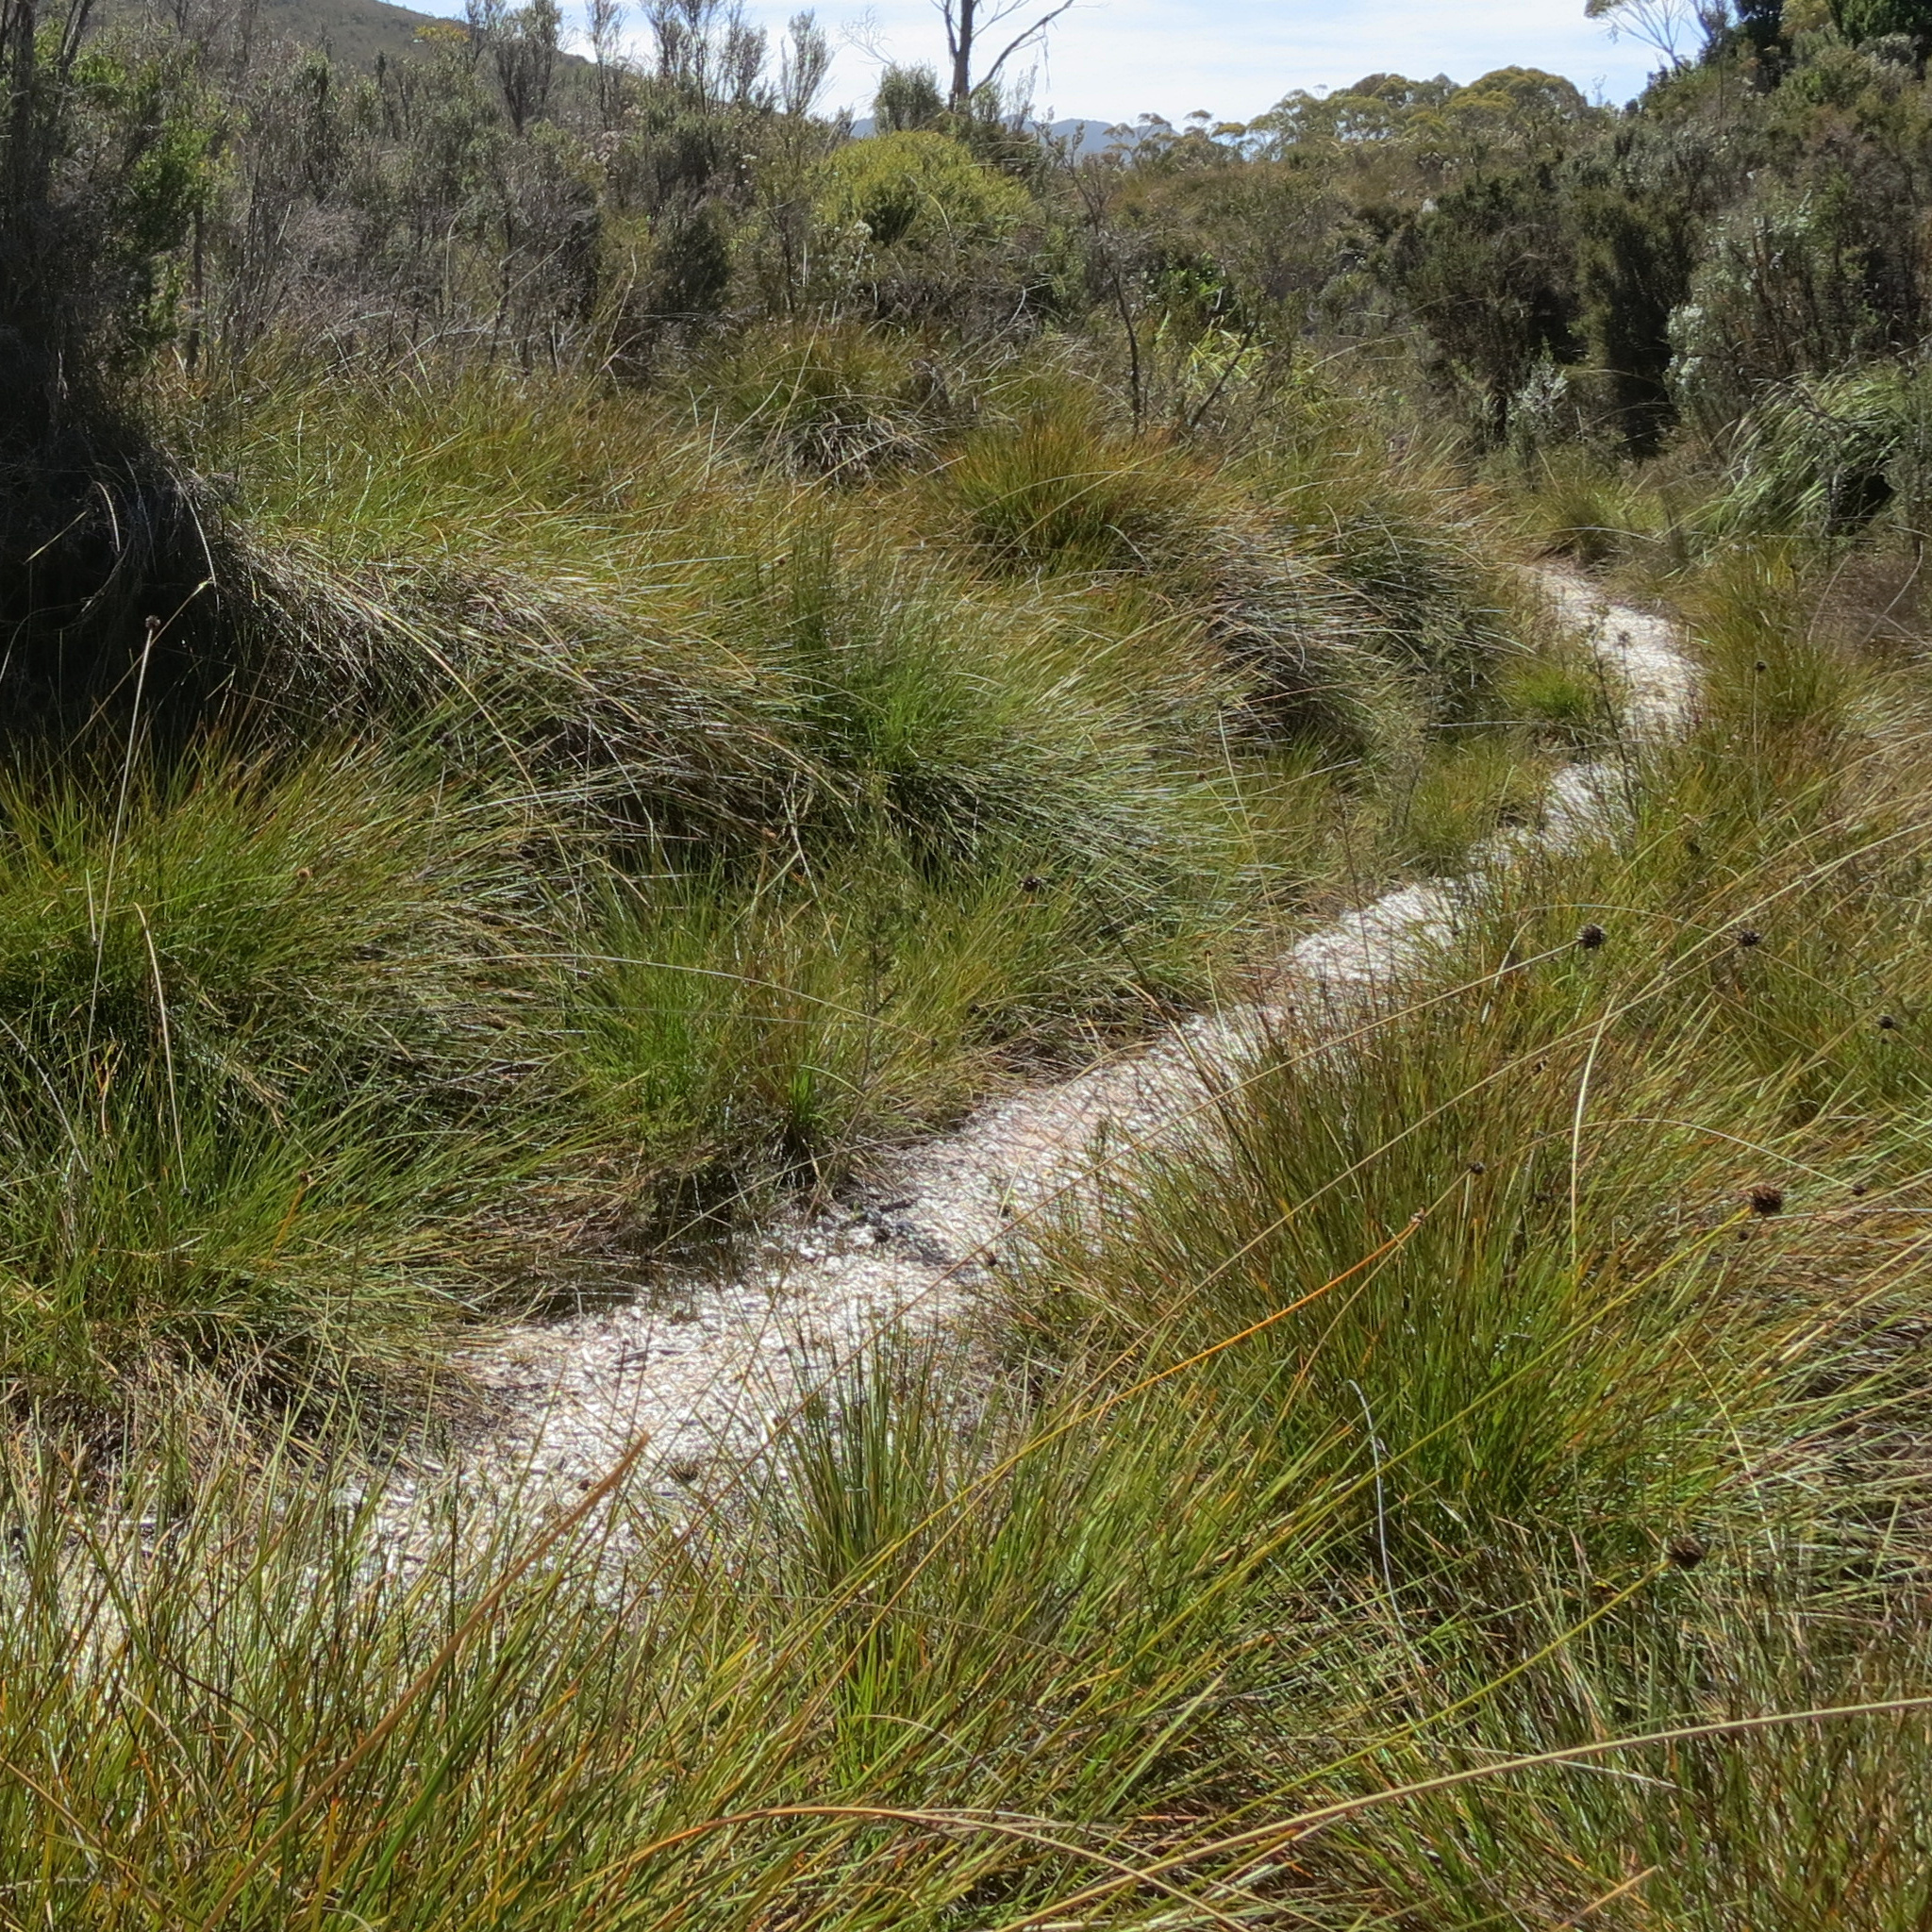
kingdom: Plantae
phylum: Tracheophyta
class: Liliopsida
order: Poales
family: Cyperaceae
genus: Gymnoschoenus
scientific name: Gymnoschoenus sphaerocephalus
